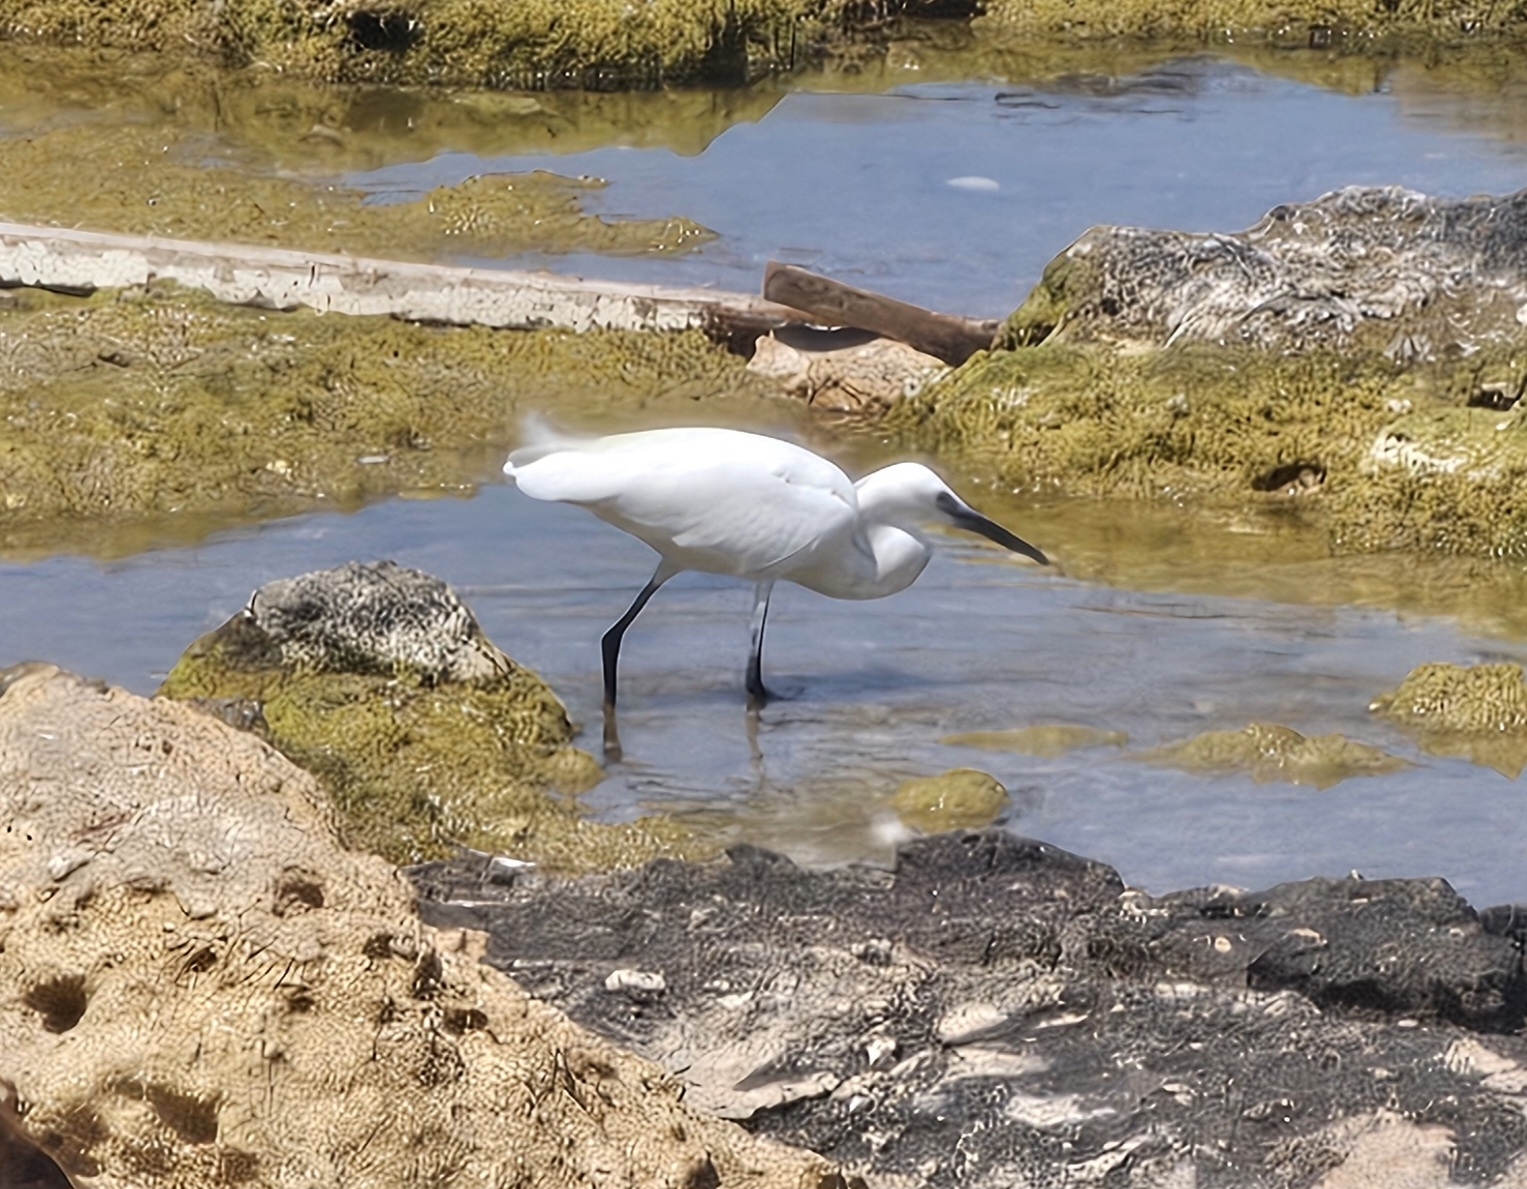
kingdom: Animalia
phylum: Chordata
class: Aves
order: Pelecaniformes
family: Ardeidae
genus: Egretta
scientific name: Egretta garzetta
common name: Little egret
